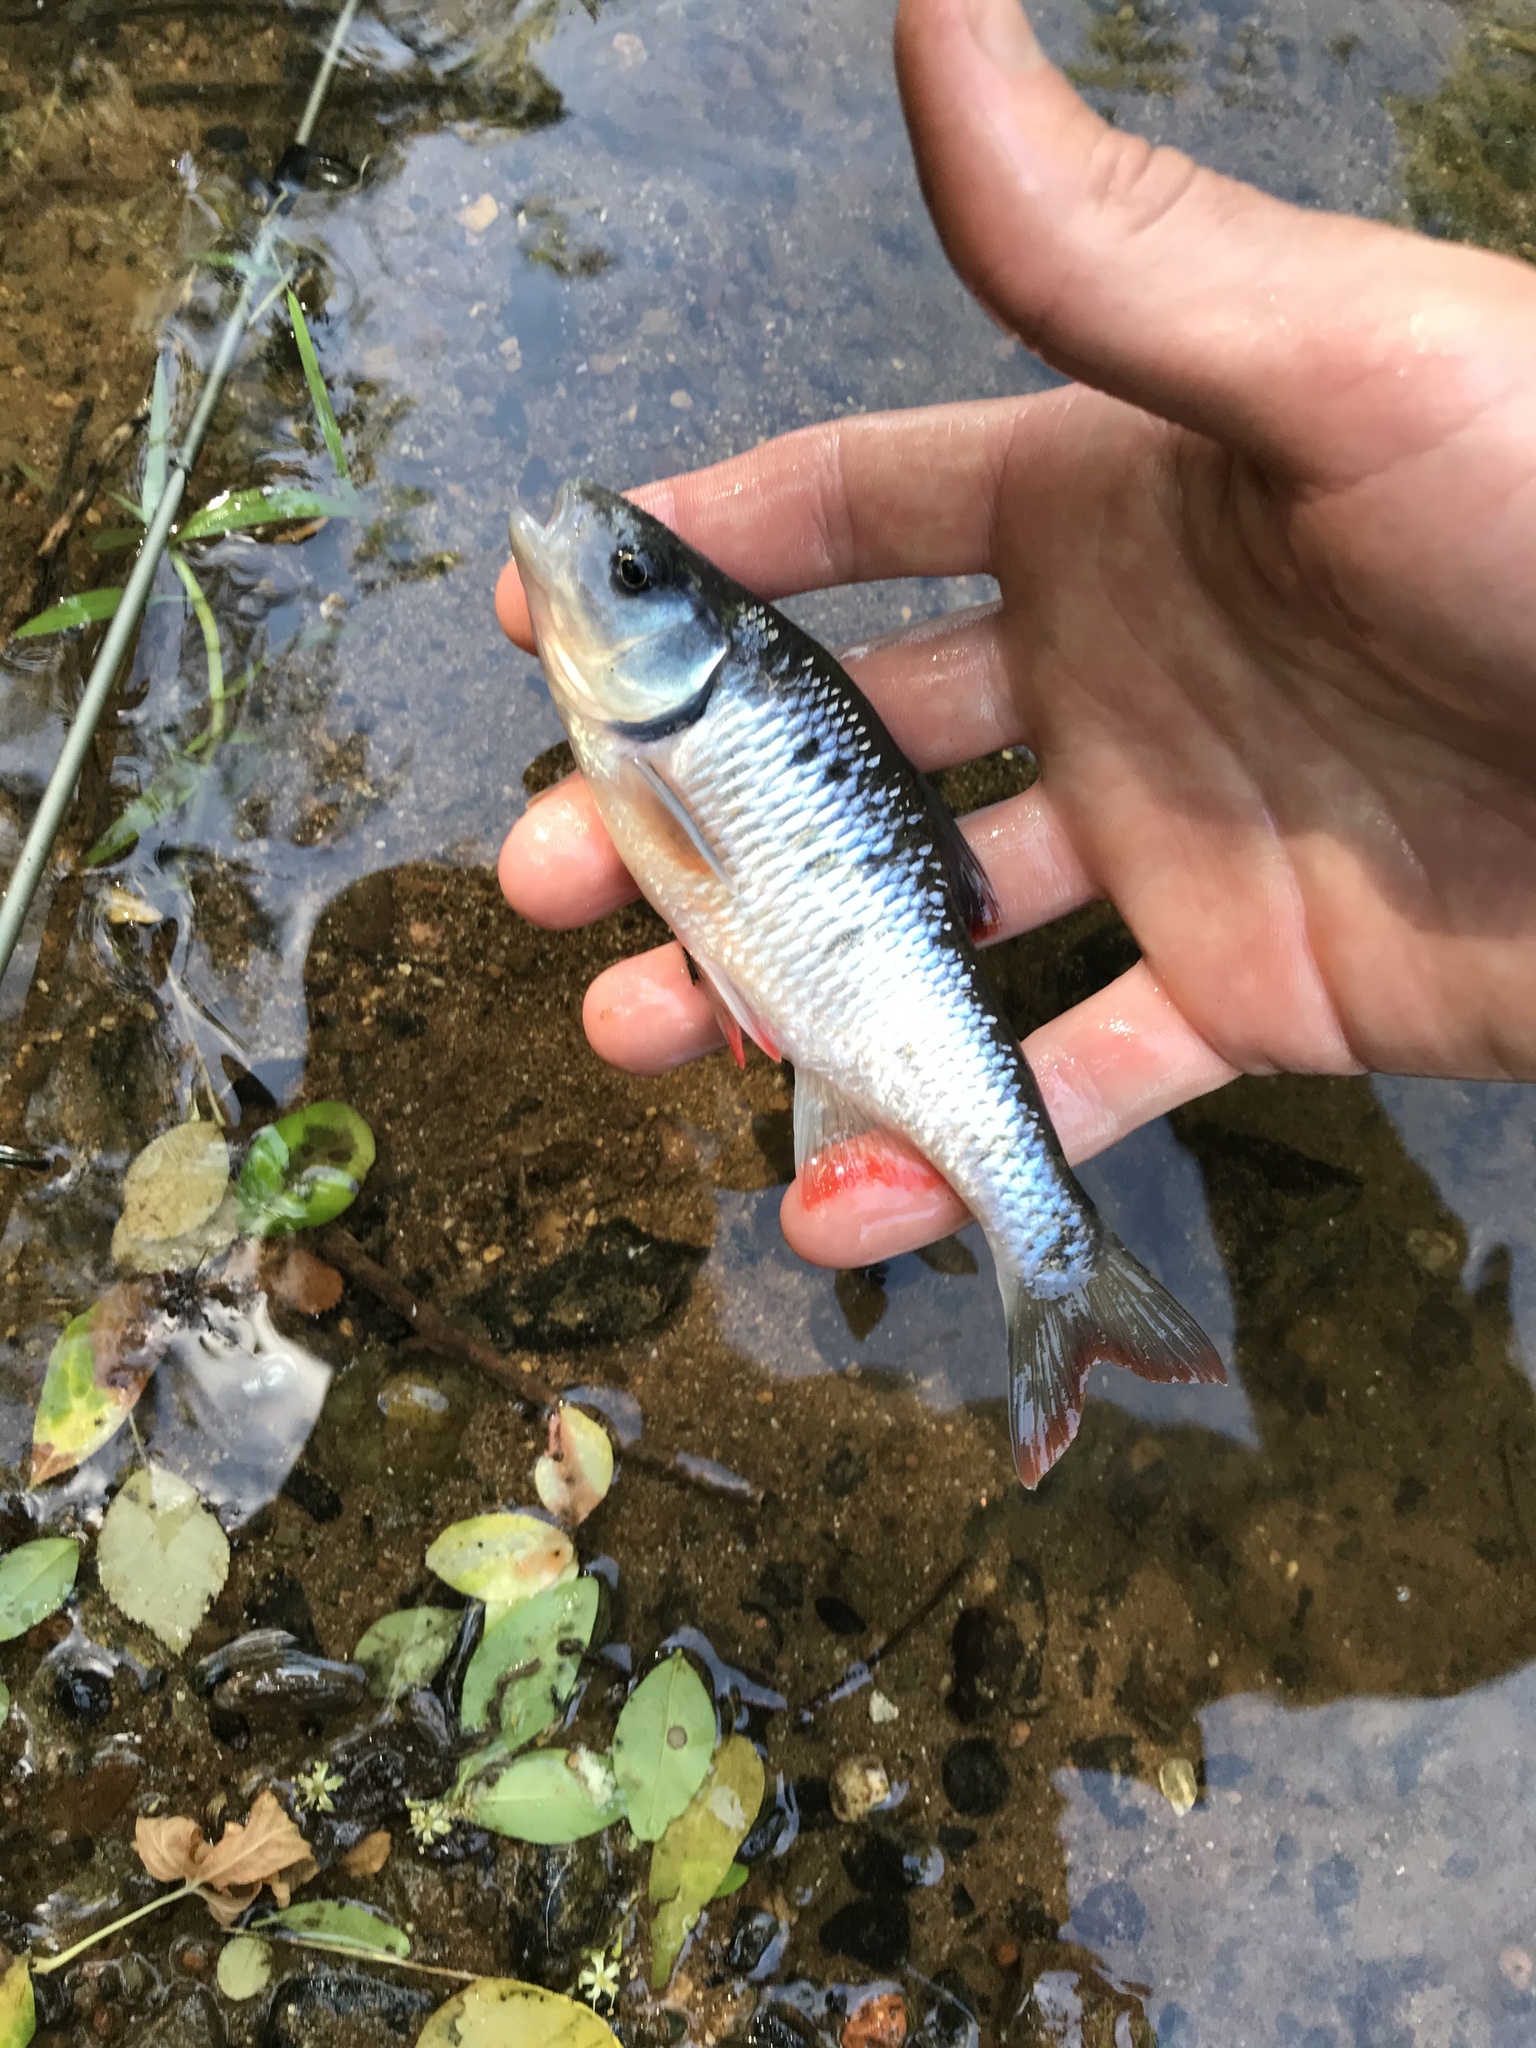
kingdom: Animalia
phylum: Chordata
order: Cypriniformes
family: Cyprinidae
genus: Luxilus
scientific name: Luxilus albeolus
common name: White shiner
